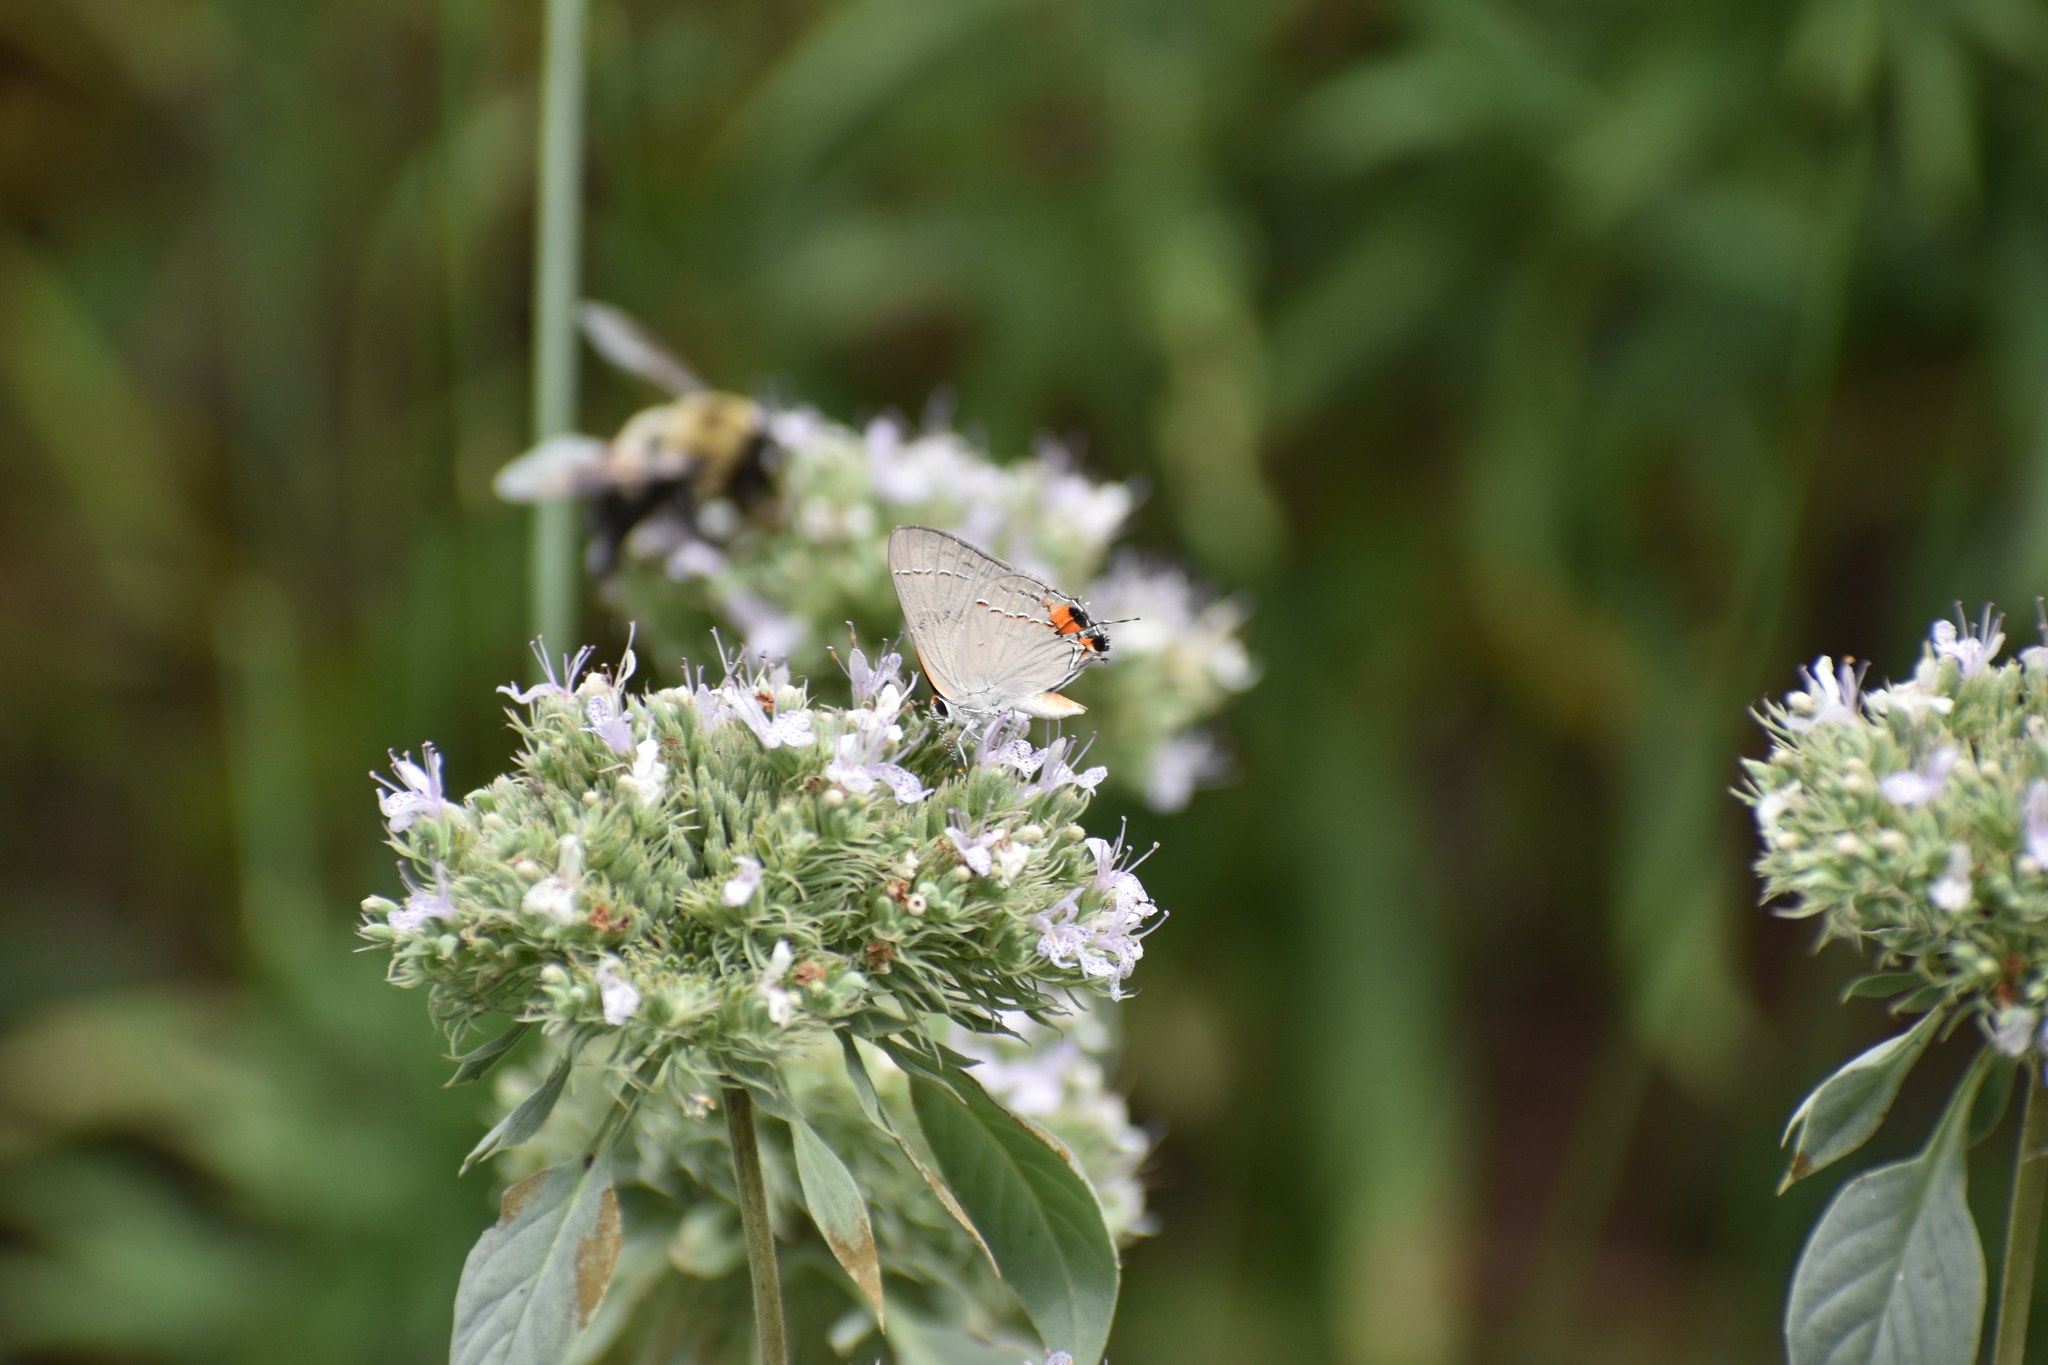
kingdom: Animalia
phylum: Arthropoda
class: Insecta
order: Lepidoptera
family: Lycaenidae
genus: Strymon
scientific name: Strymon melinus
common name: Gray hairstreak
